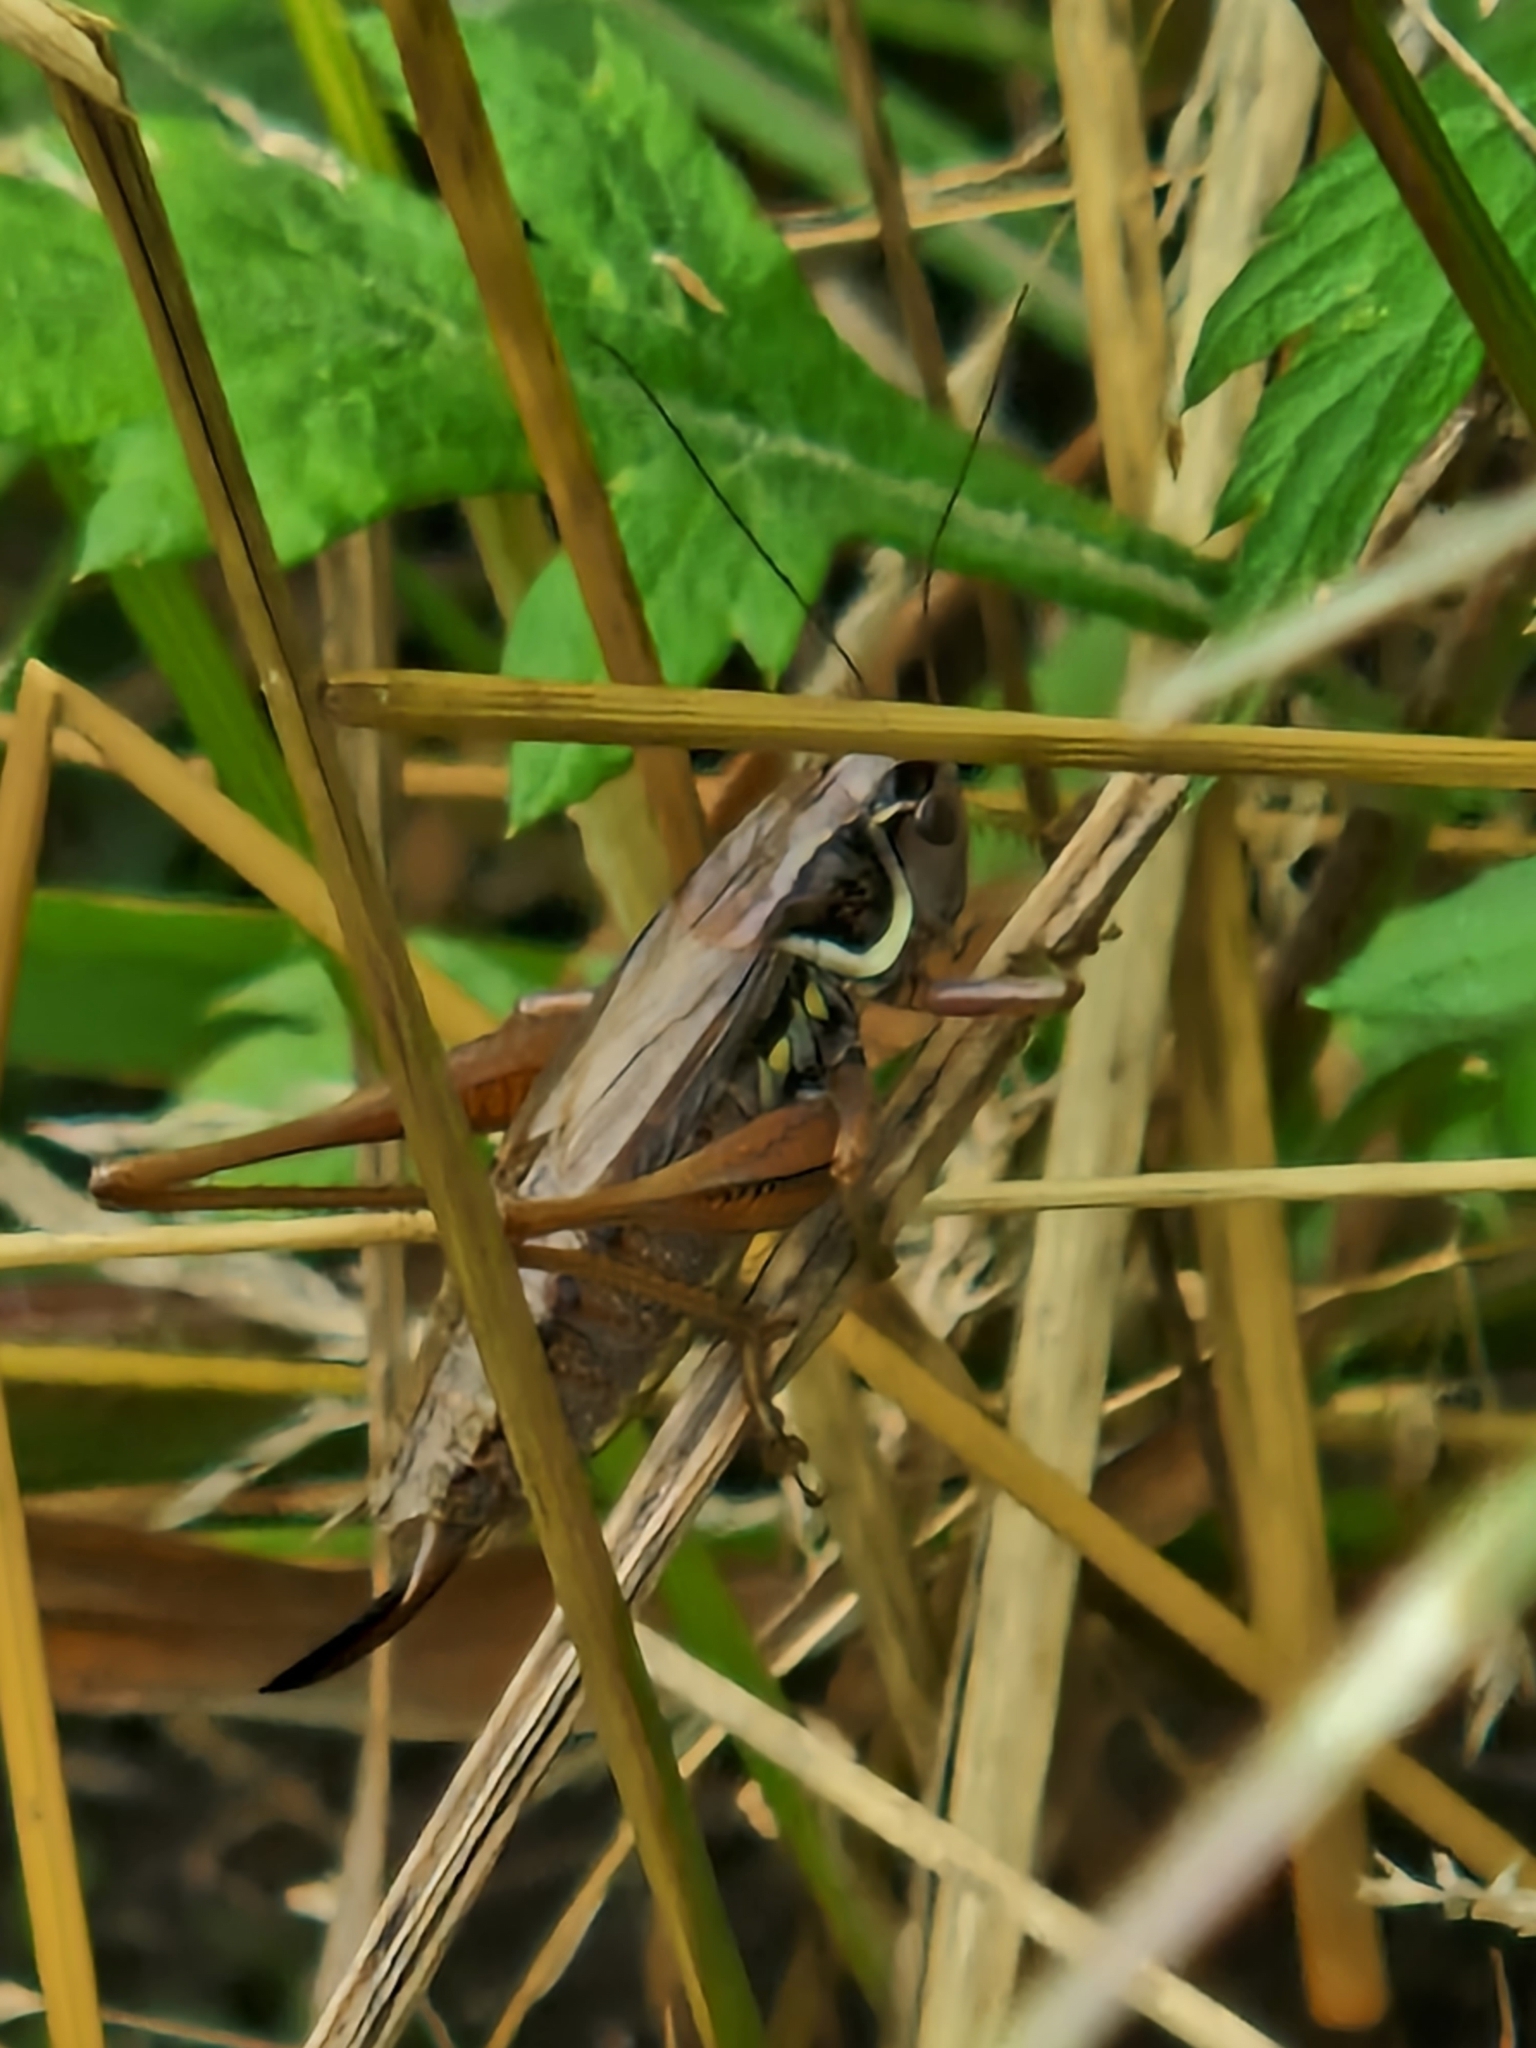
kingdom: Animalia
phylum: Arthropoda
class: Insecta
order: Orthoptera
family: Tettigoniidae
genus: Roeseliana
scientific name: Roeseliana roeselii
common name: Roesel's bush cricket
